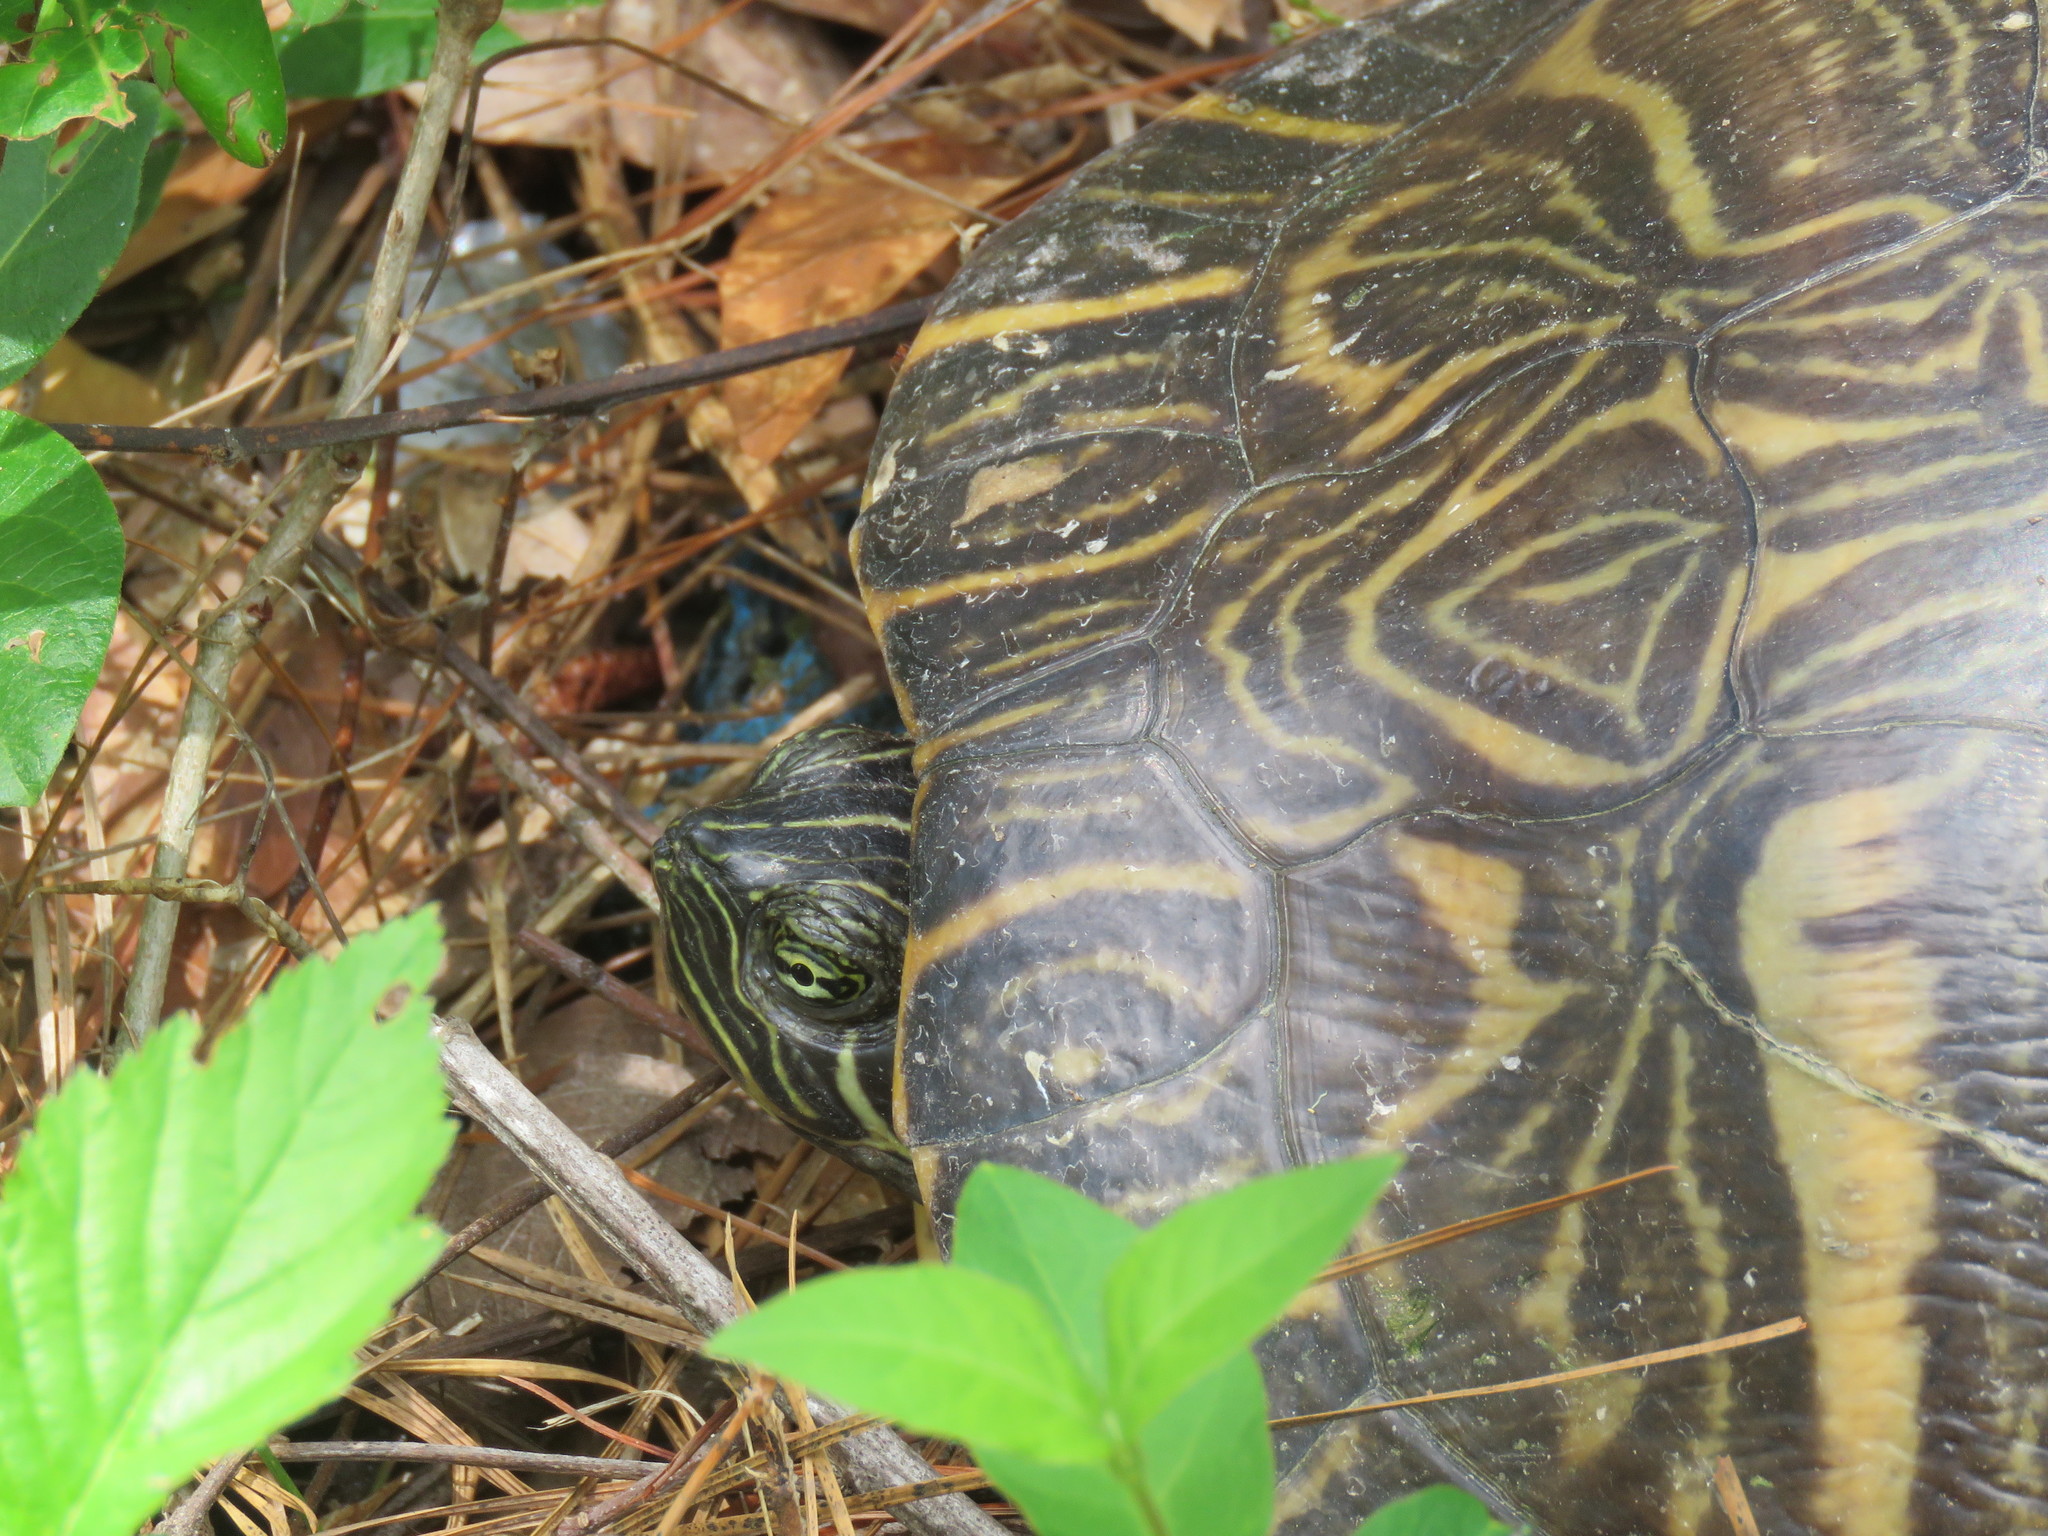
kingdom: Animalia
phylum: Chordata
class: Testudines
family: Emydidae
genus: Pseudemys
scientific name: Pseudemys concinna
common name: Eastern river cooter
